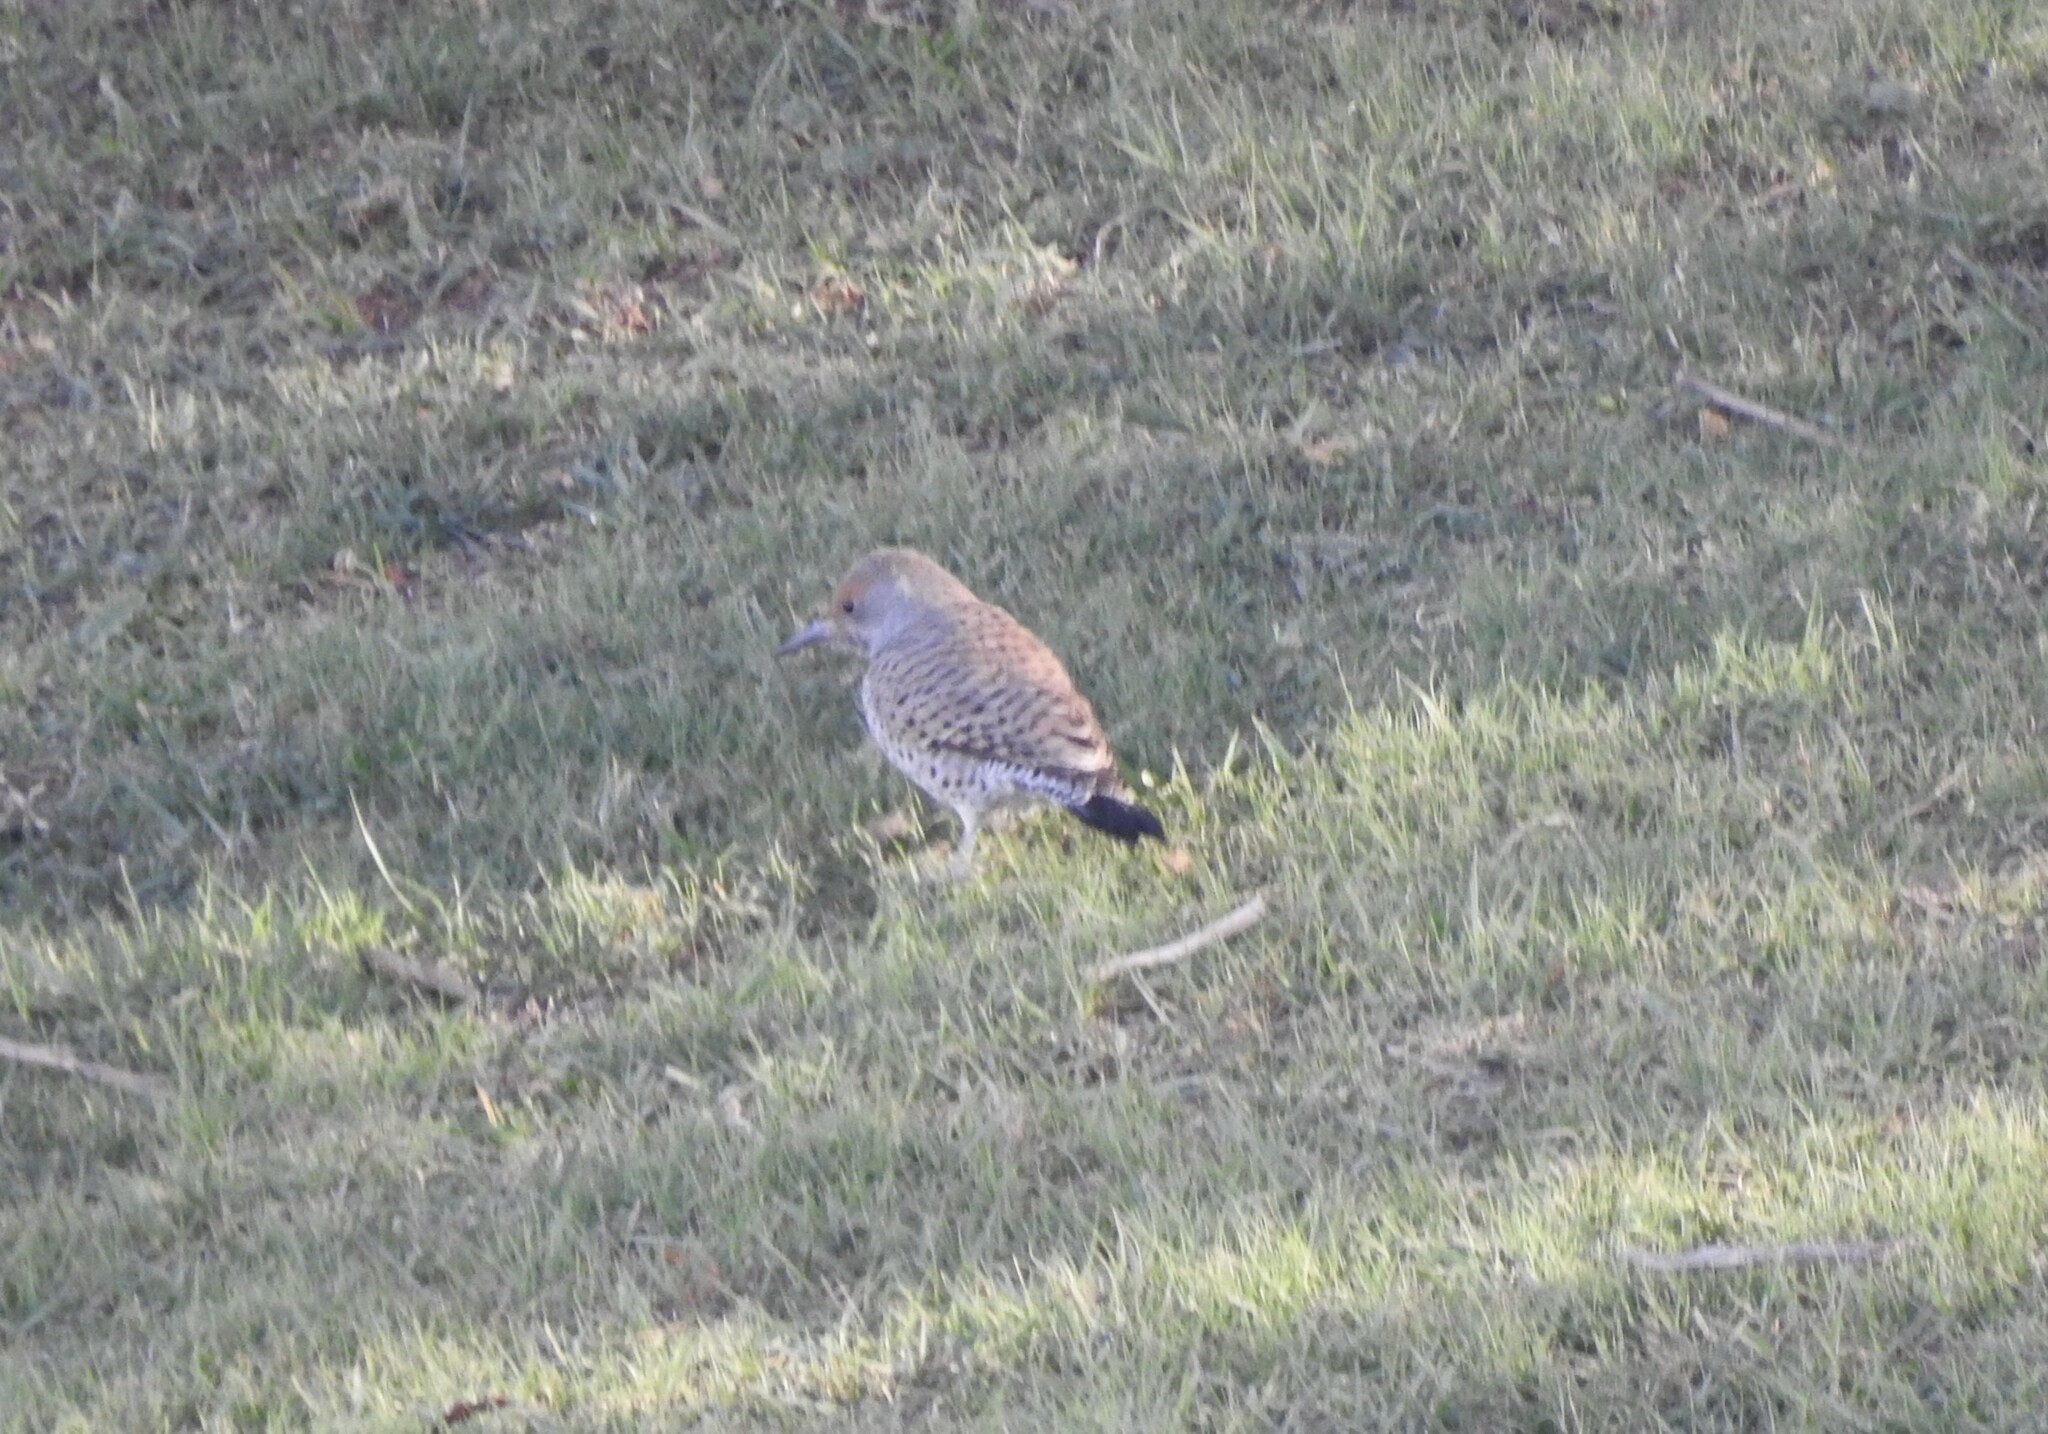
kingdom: Animalia
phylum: Chordata
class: Aves
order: Piciformes
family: Picidae
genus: Colaptes
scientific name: Colaptes auratus
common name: Northern flicker
